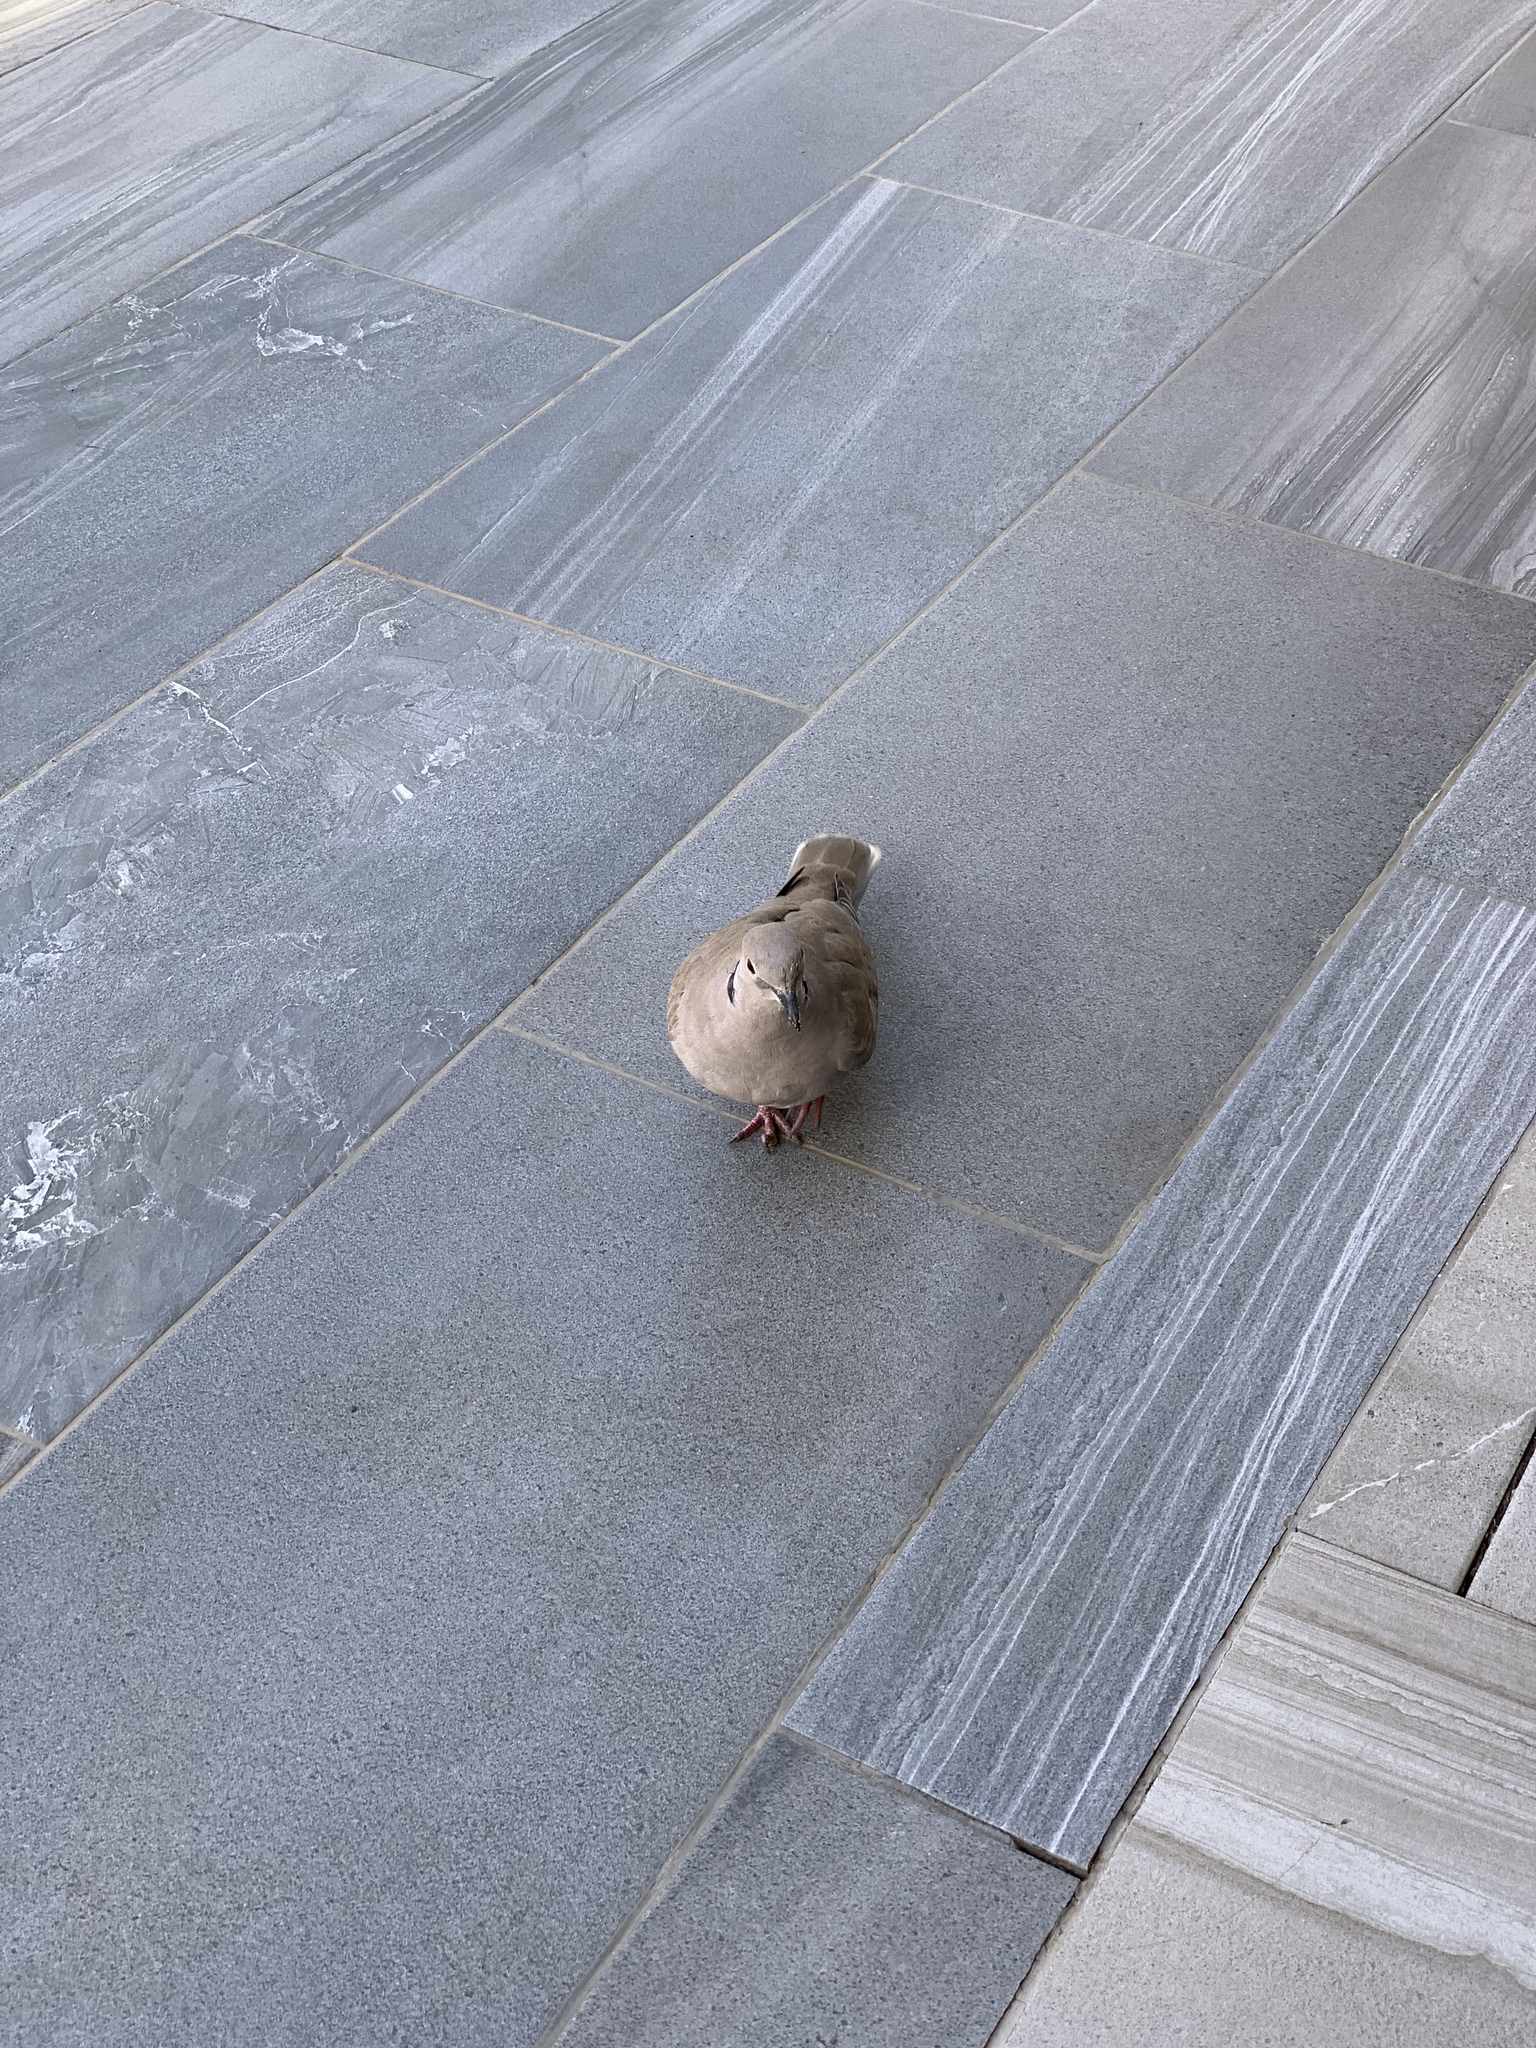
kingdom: Animalia
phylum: Chordata
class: Aves
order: Columbiformes
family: Columbidae
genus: Streptopelia
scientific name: Streptopelia decaocto
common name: Eurasian collared dove
